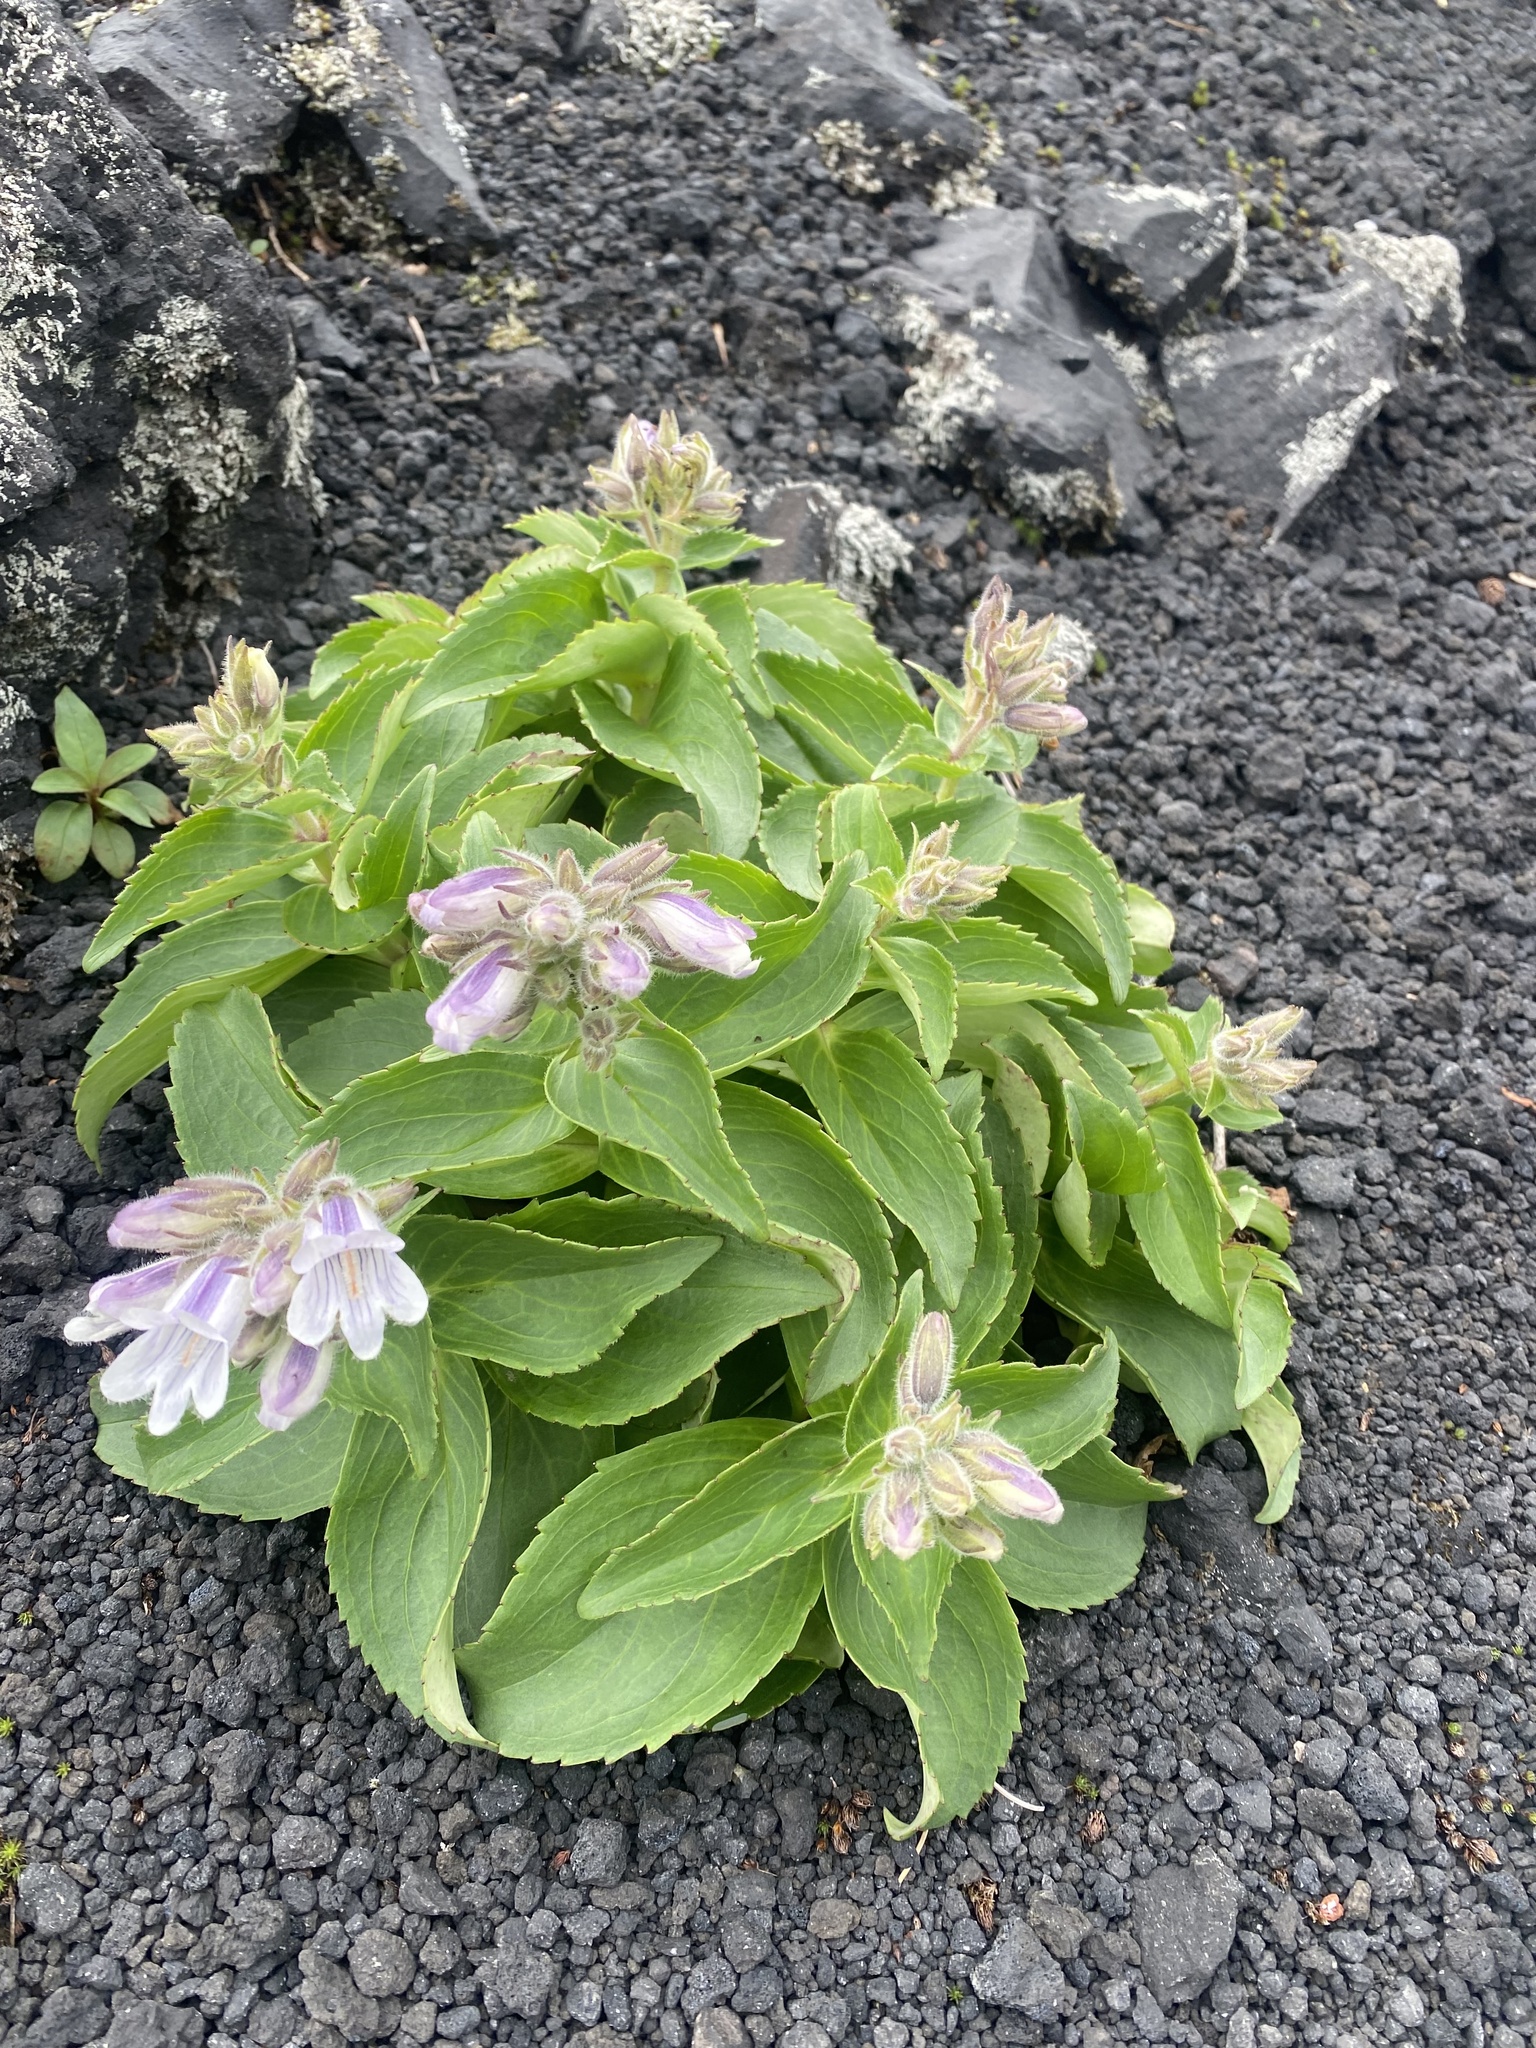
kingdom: Plantae
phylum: Tracheophyta
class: Magnoliopsida
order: Lamiales
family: Plantaginaceae
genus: Pennellianthus
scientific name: Pennellianthus frutescens
